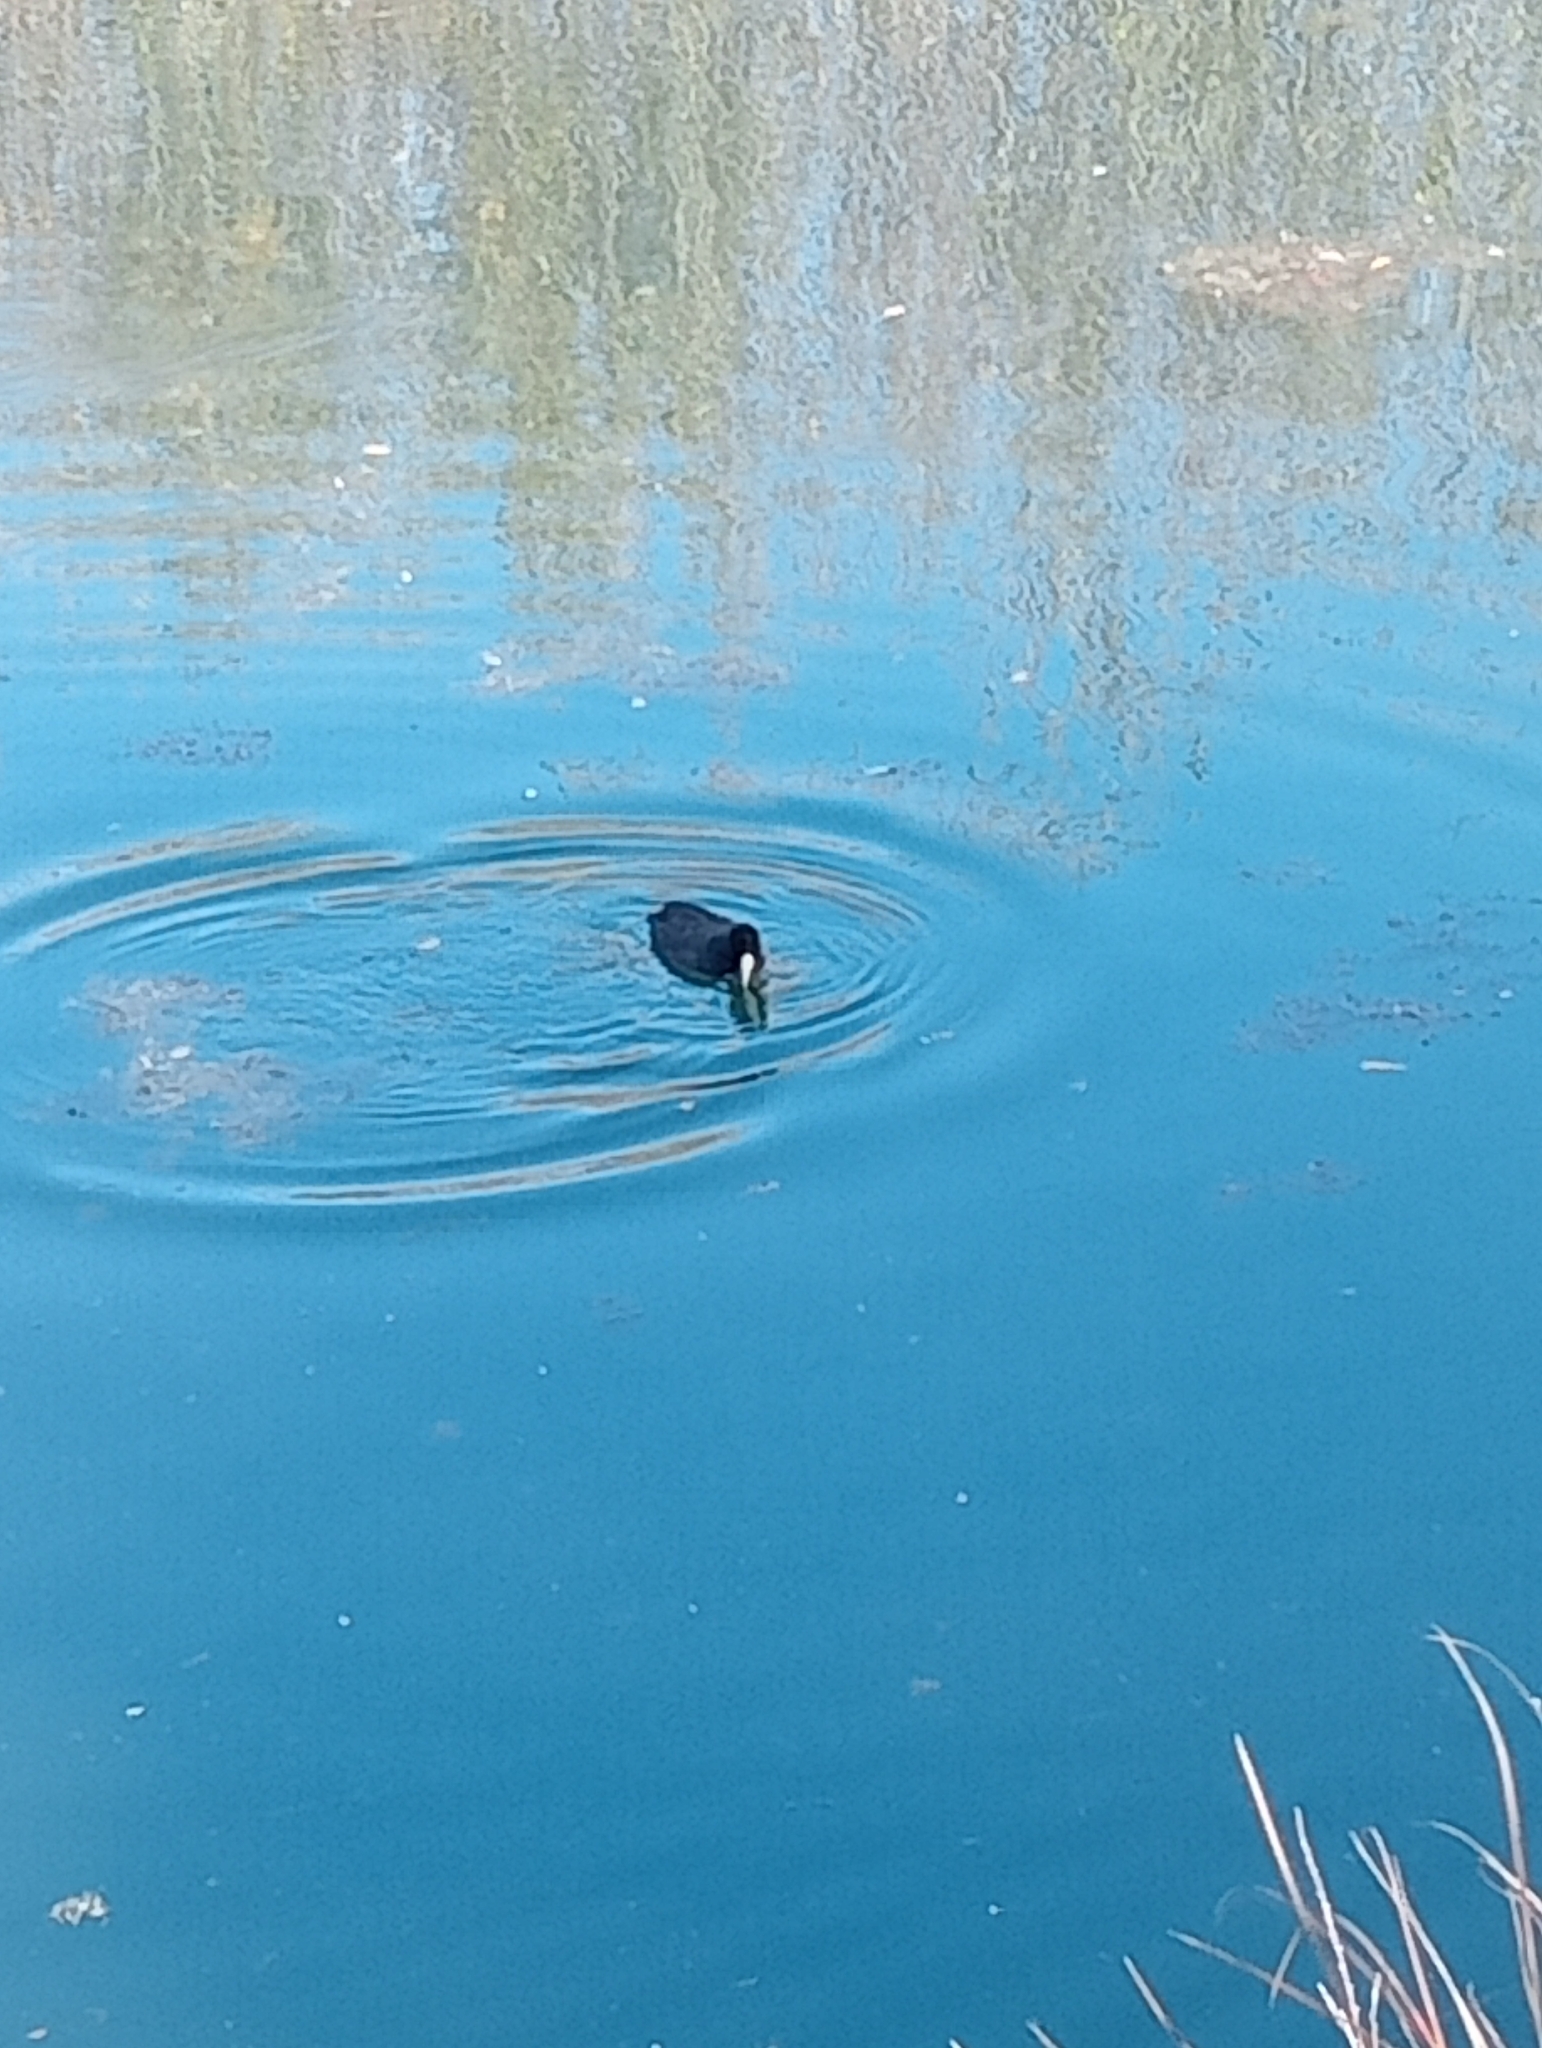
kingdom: Animalia
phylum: Chordata
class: Aves
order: Gruiformes
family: Rallidae
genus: Fulica
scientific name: Fulica atra
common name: Eurasian coot
